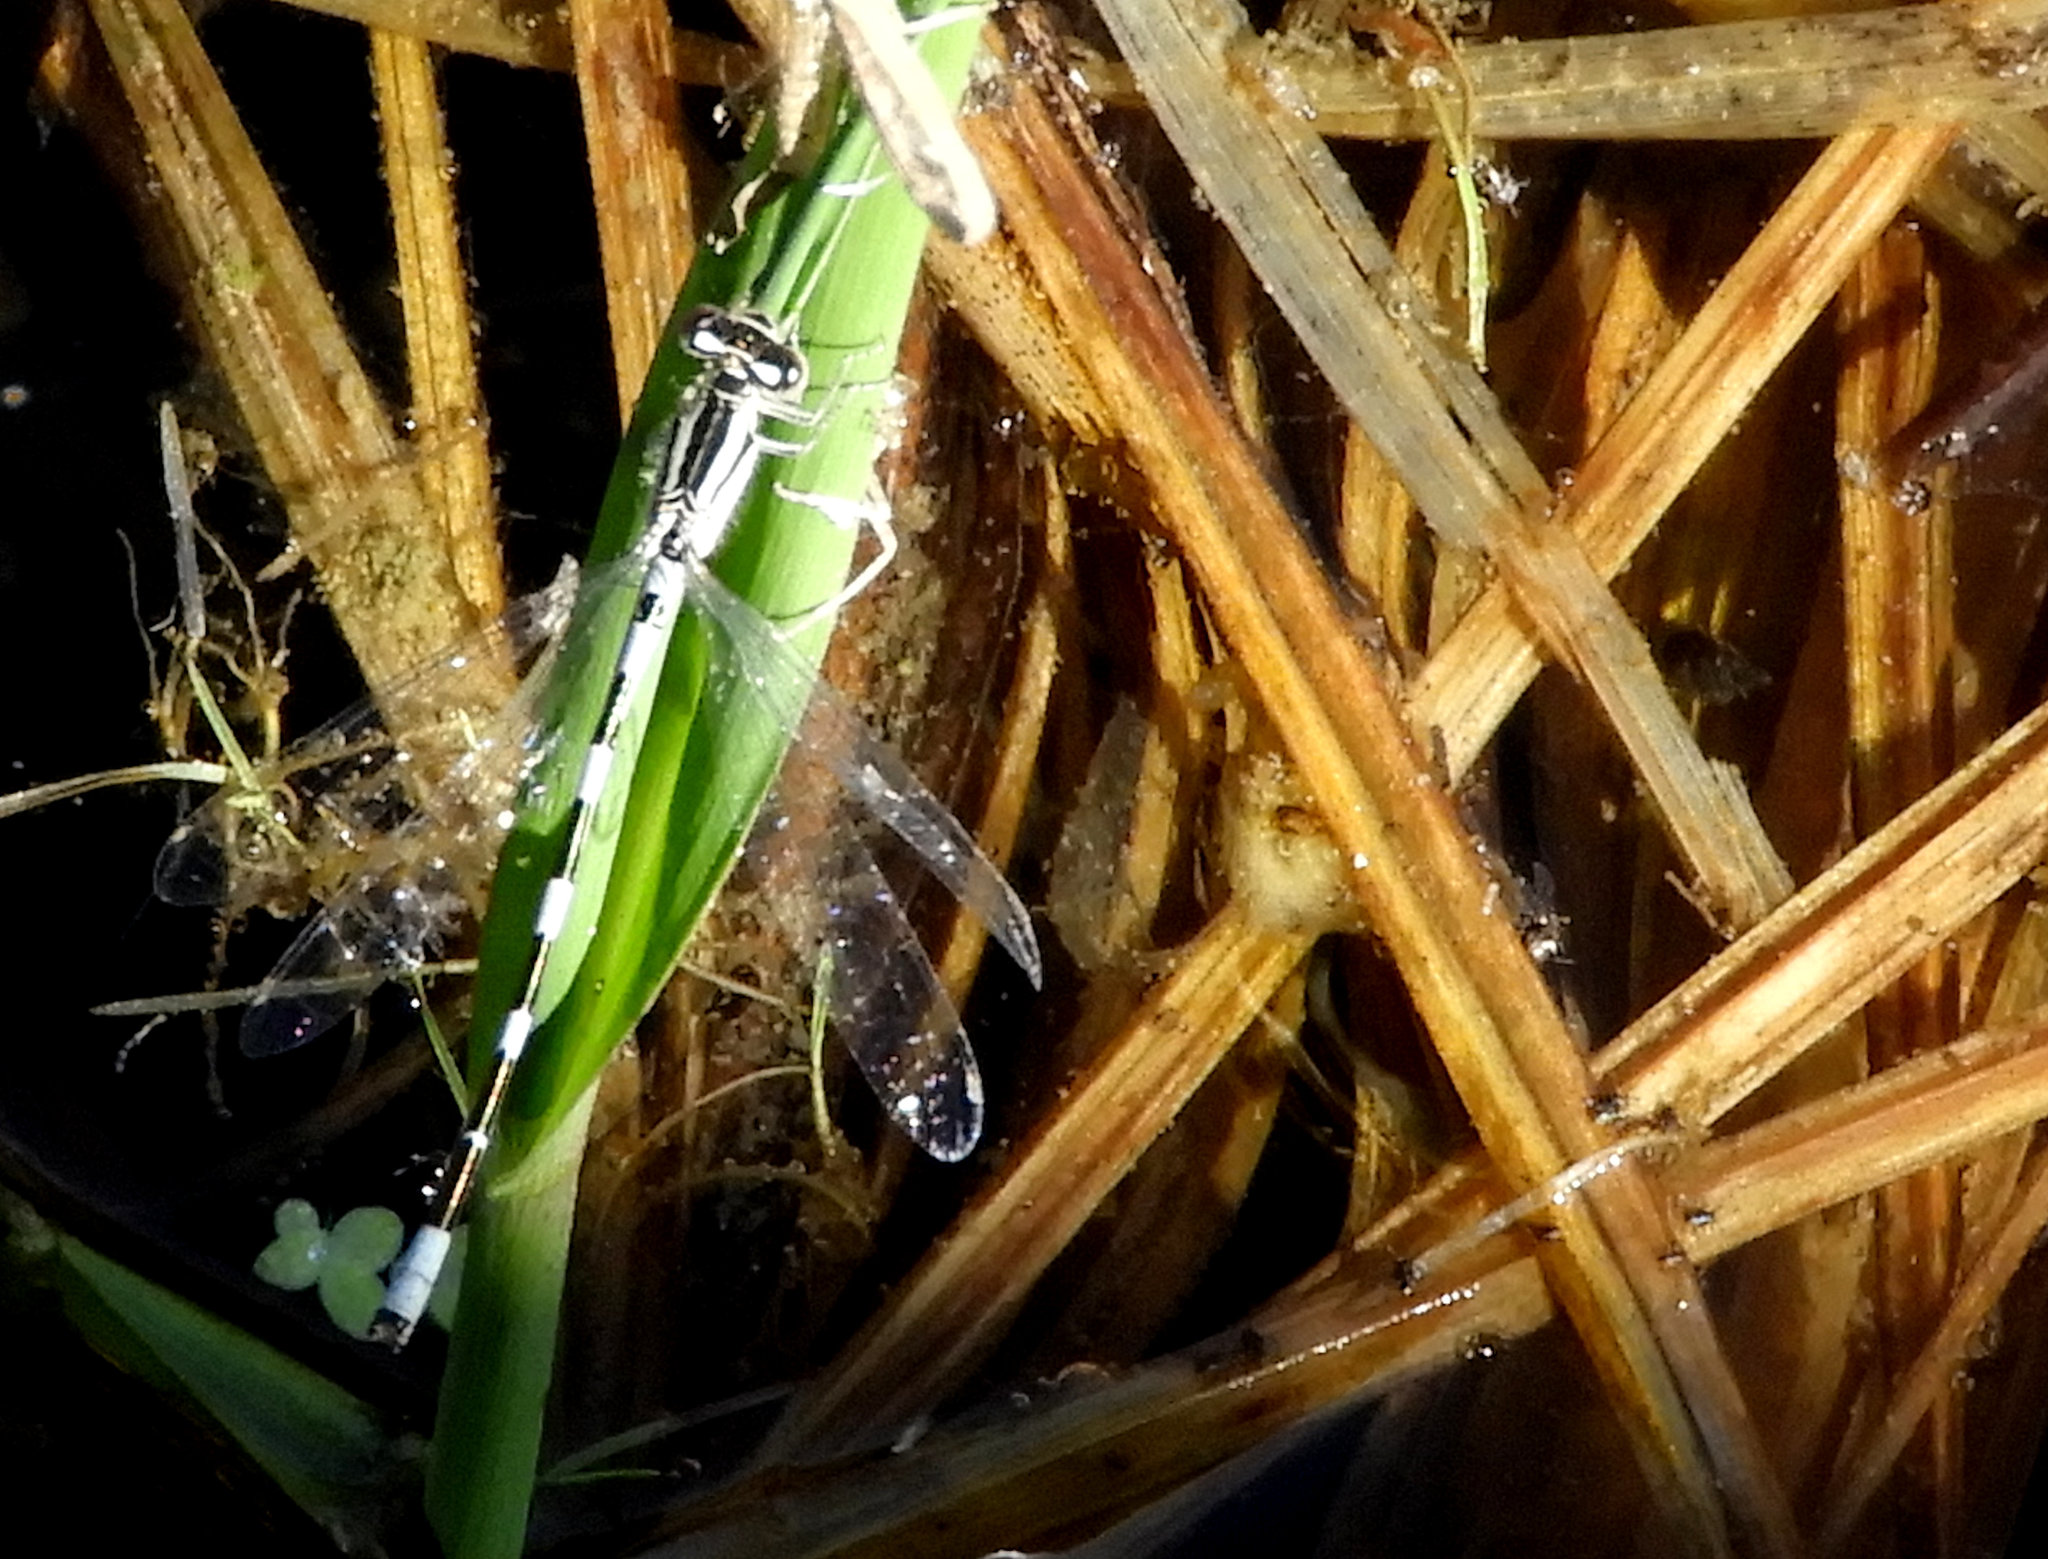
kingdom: Animalia
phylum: Arthropoda
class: Insecta
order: Odonata
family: Coenagrionidae
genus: Enallagma
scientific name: Enallagma carunculatum
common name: Tule bluet
